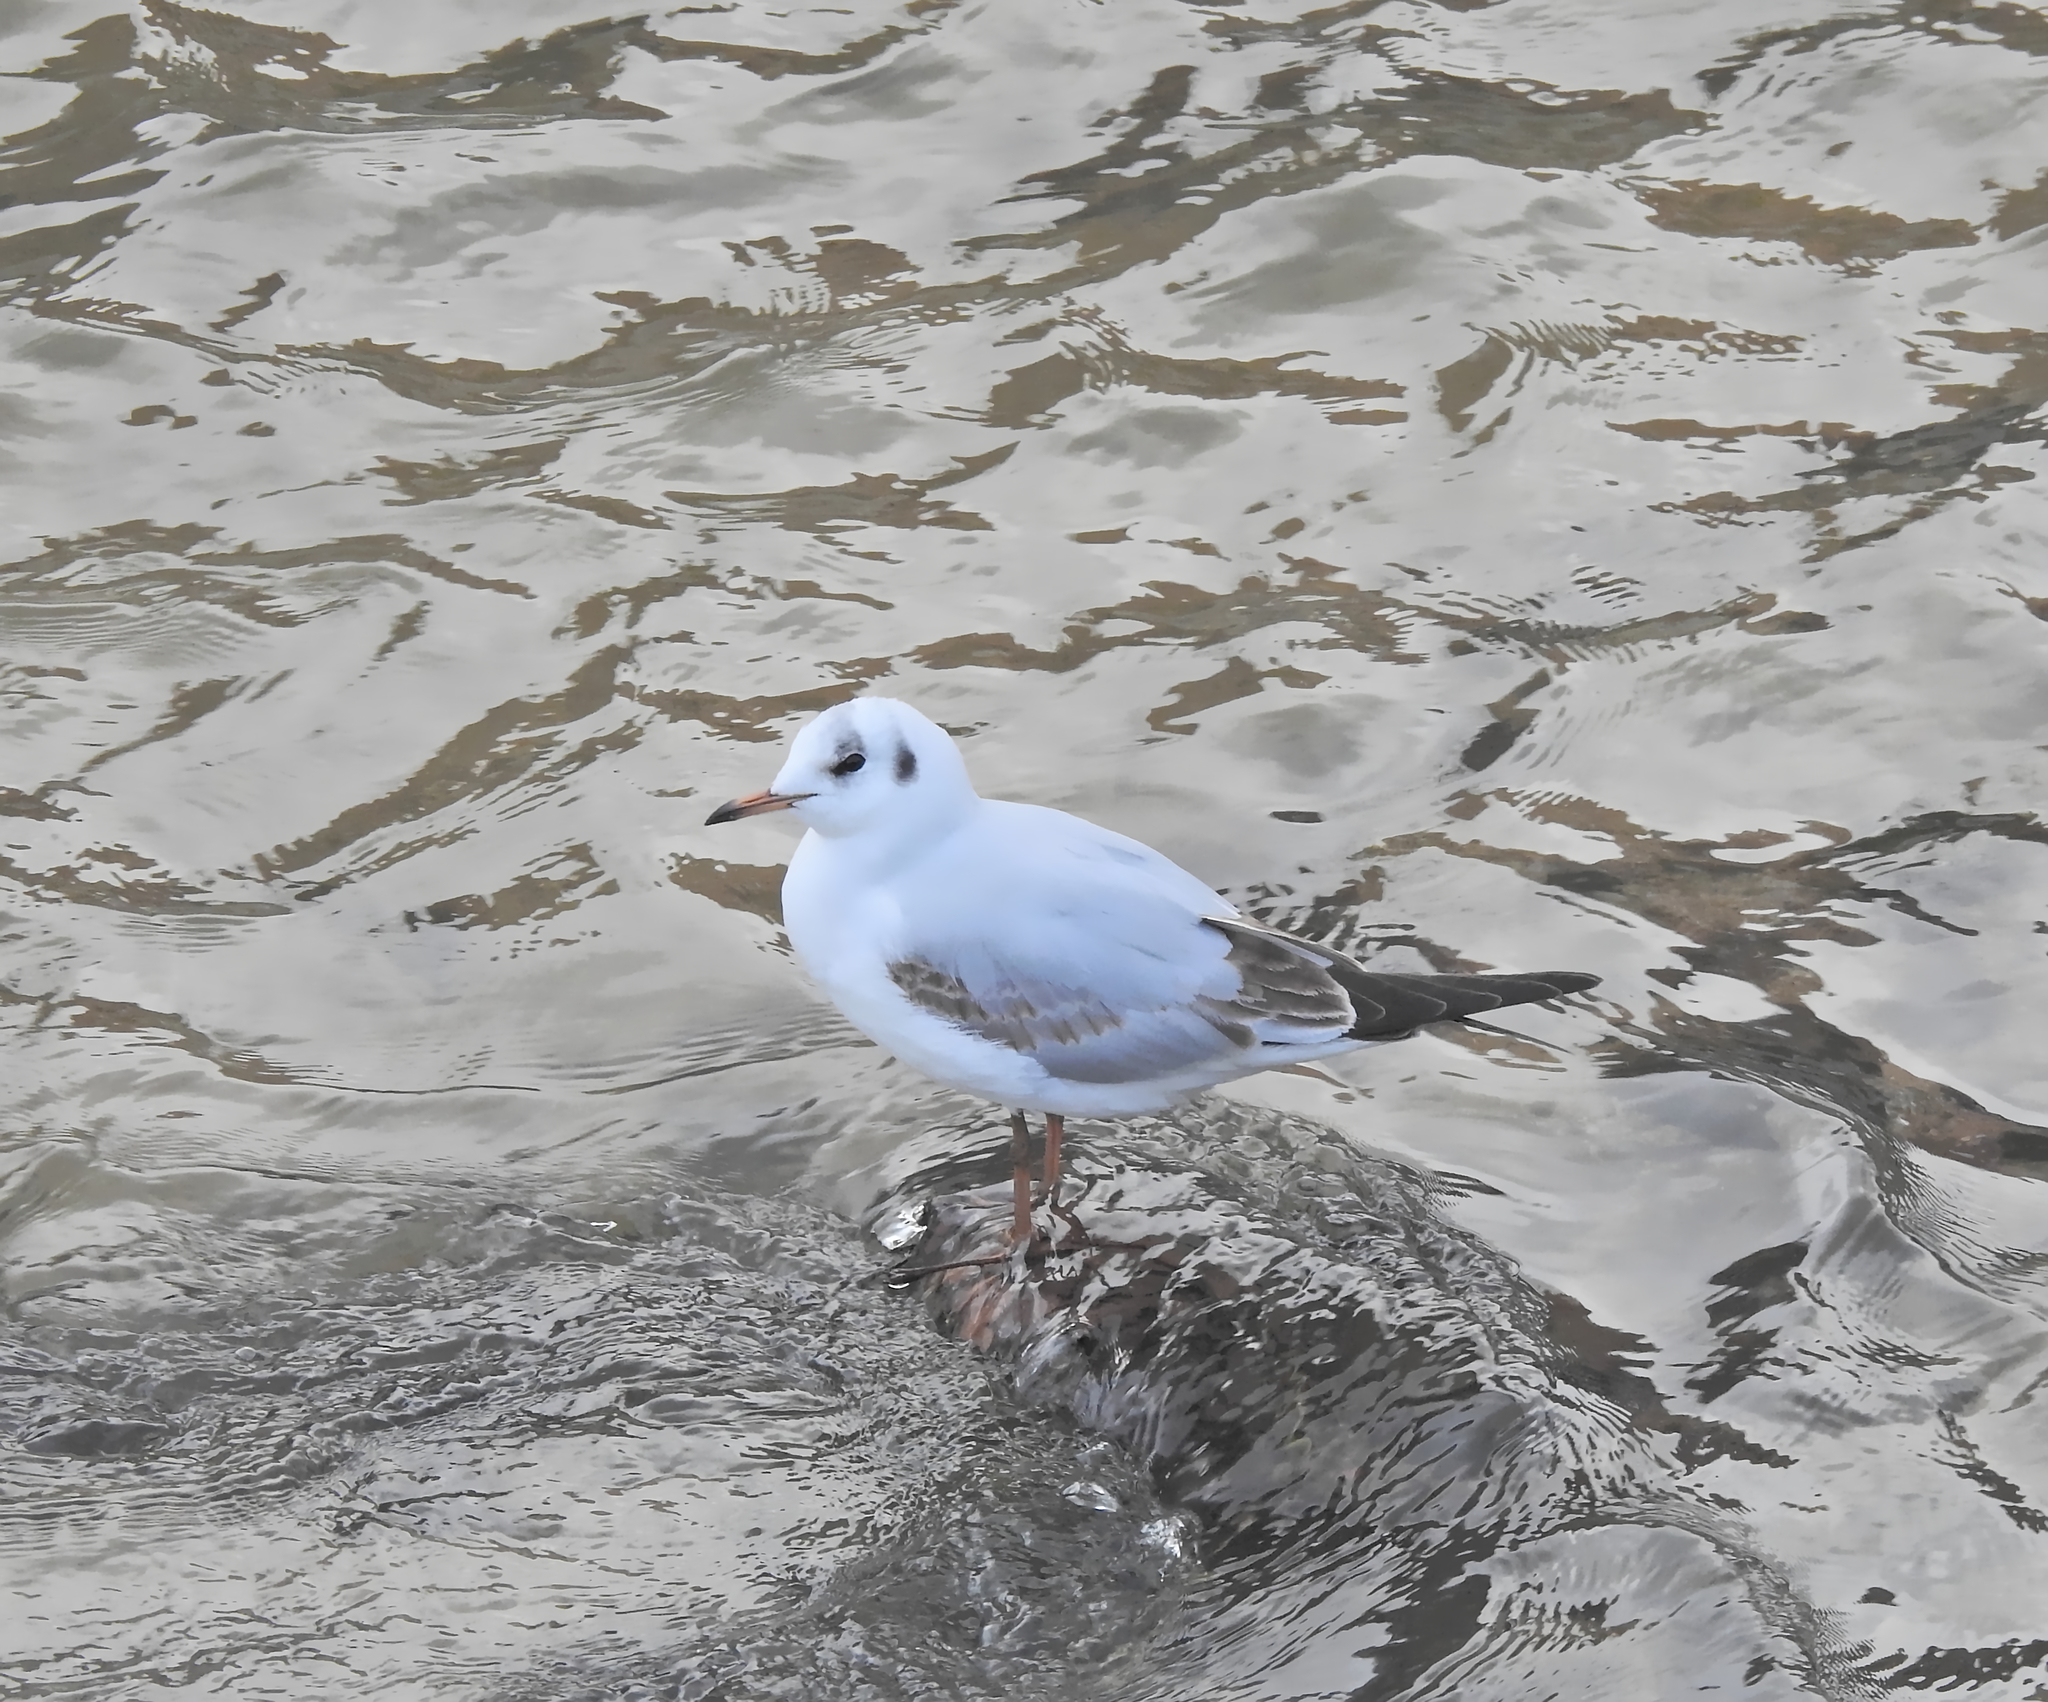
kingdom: Animalia
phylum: Chordata
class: Aves
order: Charadriiformes
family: Laridae
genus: Chroicocephalus
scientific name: Chroicocephalus ridibundus
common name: Black-headed gull
